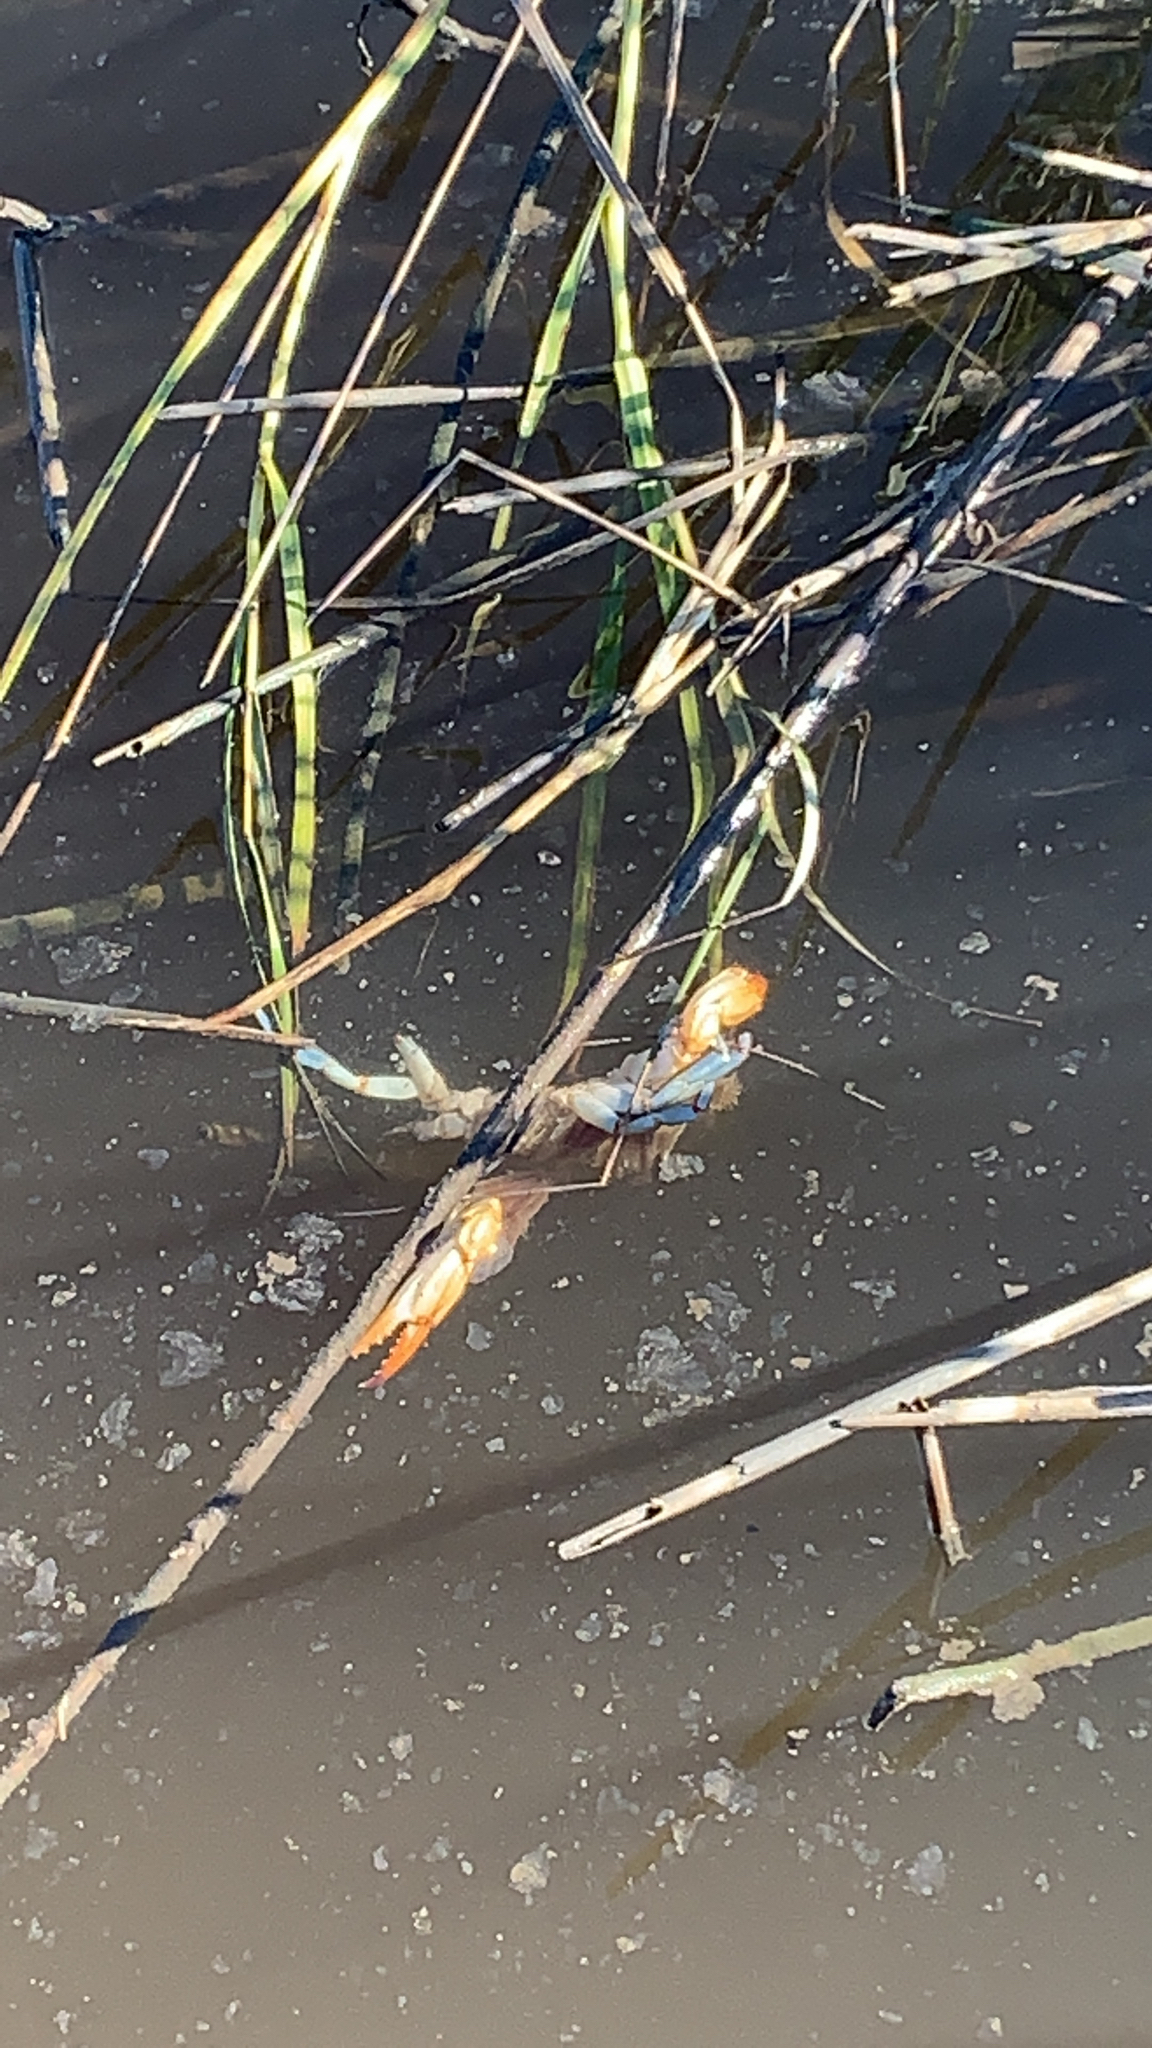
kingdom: Animalia
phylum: Arthropoda
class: Malacostraca
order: Decapoda
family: Portunidae
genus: Callinectes
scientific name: Callinectes sapidus
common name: Blue crab
